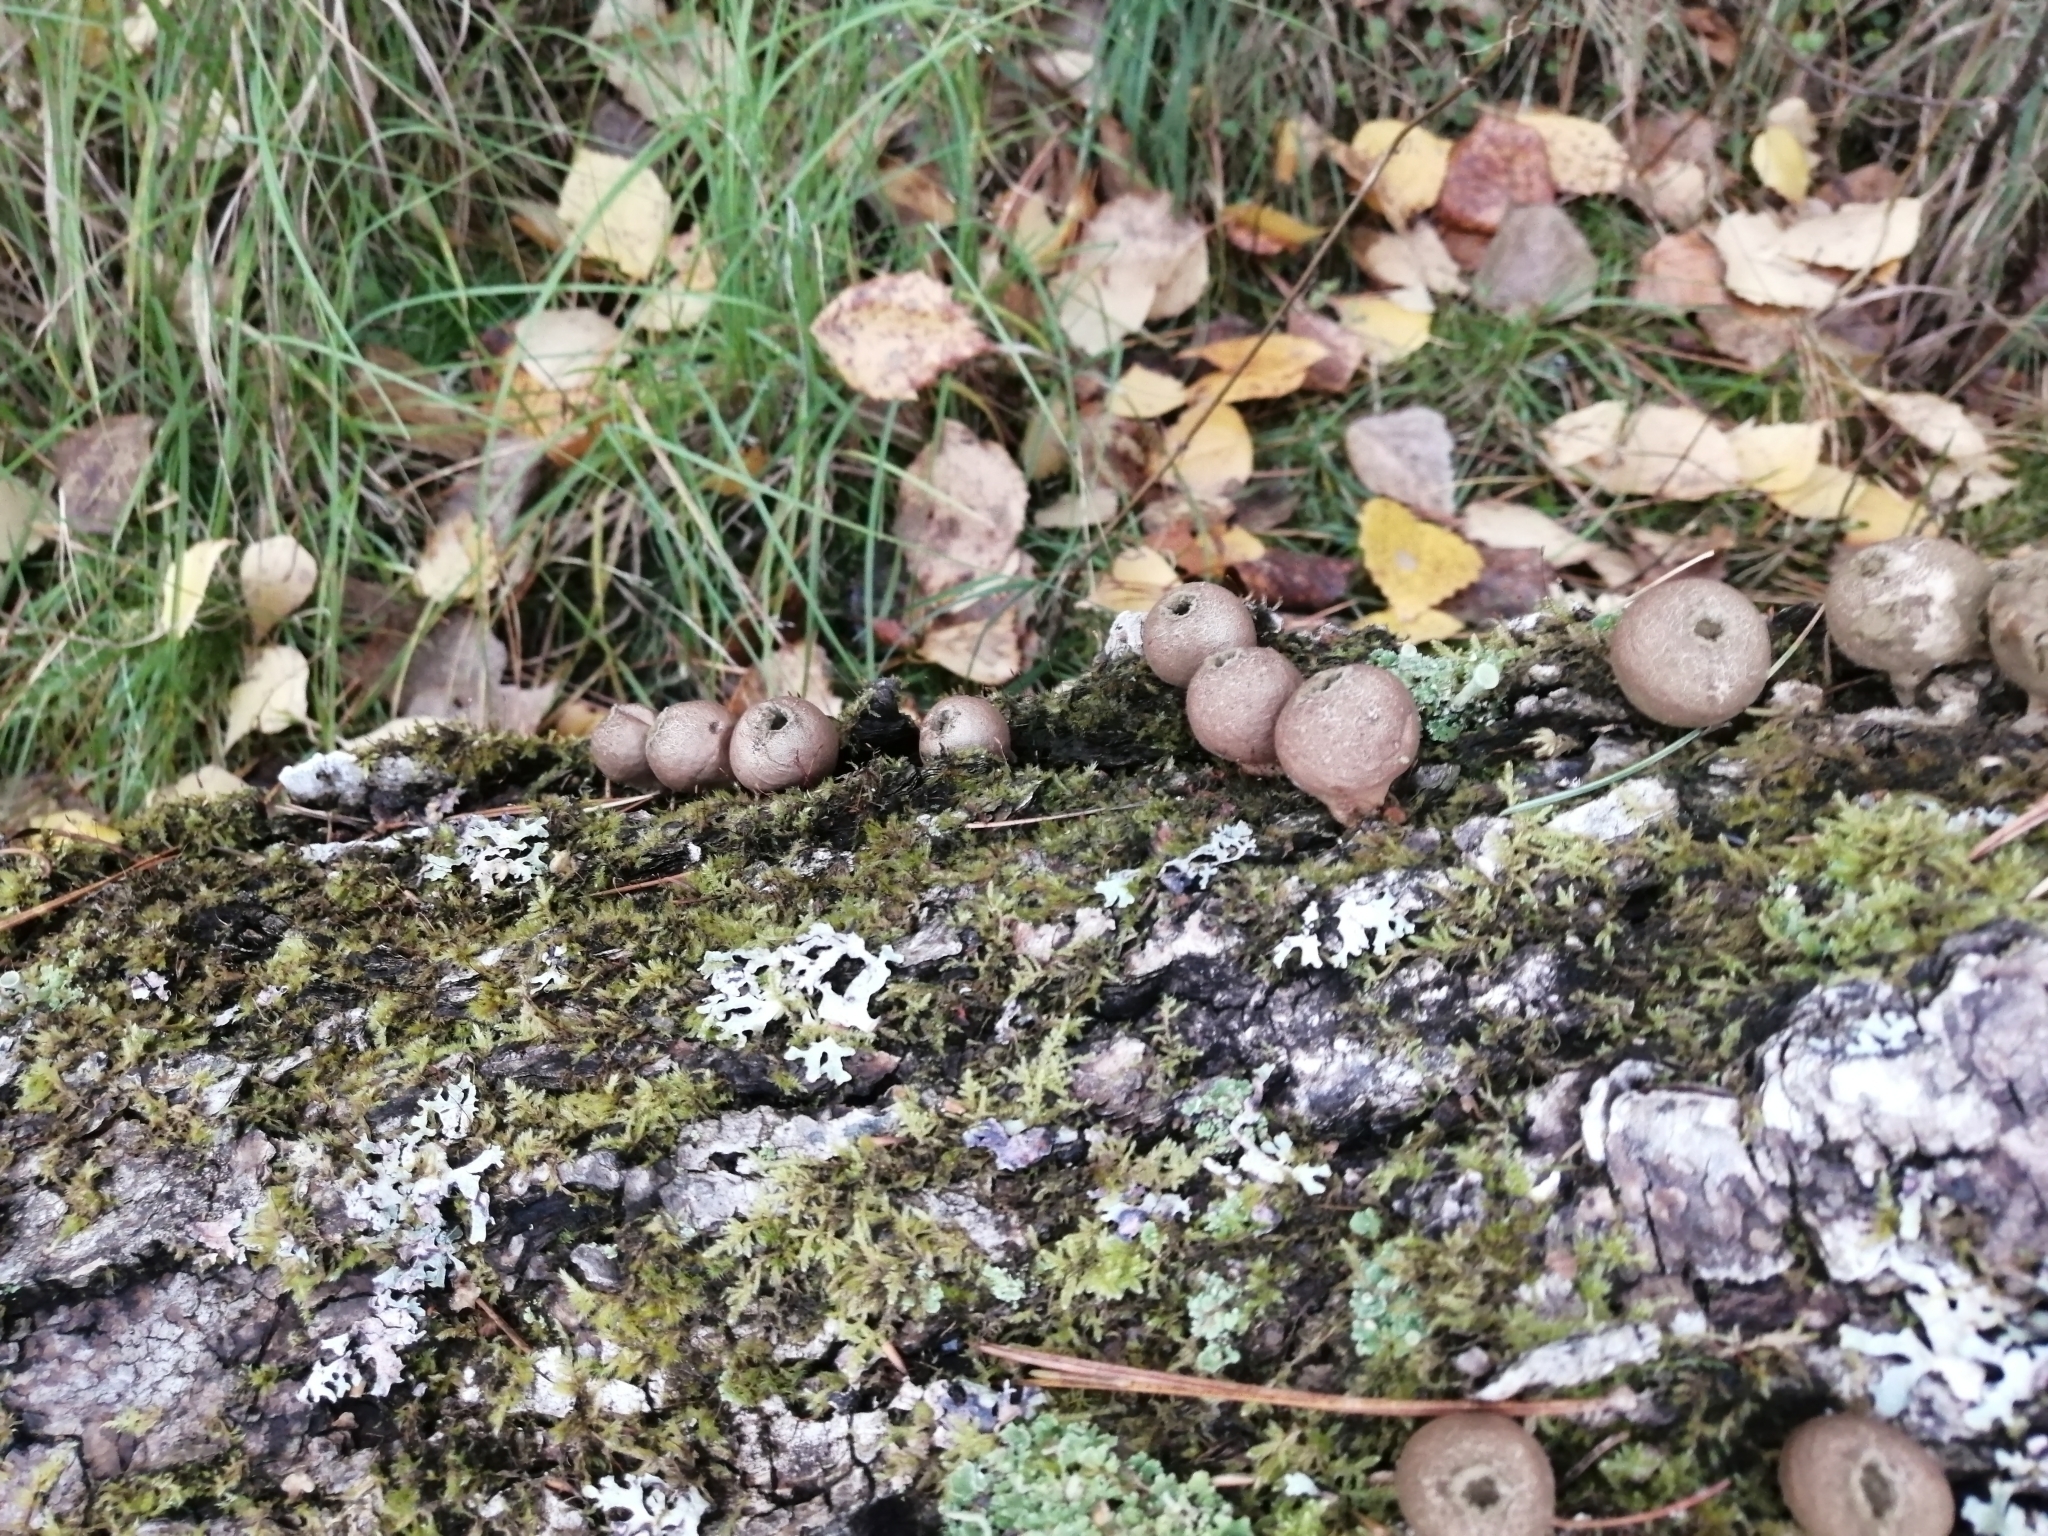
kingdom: Fungi
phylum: Basidiomycota
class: Agaricomycetes
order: Agaricales
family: Lycoperdaceae
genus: Apioperdon
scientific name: Apioperdon pyriforme
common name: Pear-shaped puffball
